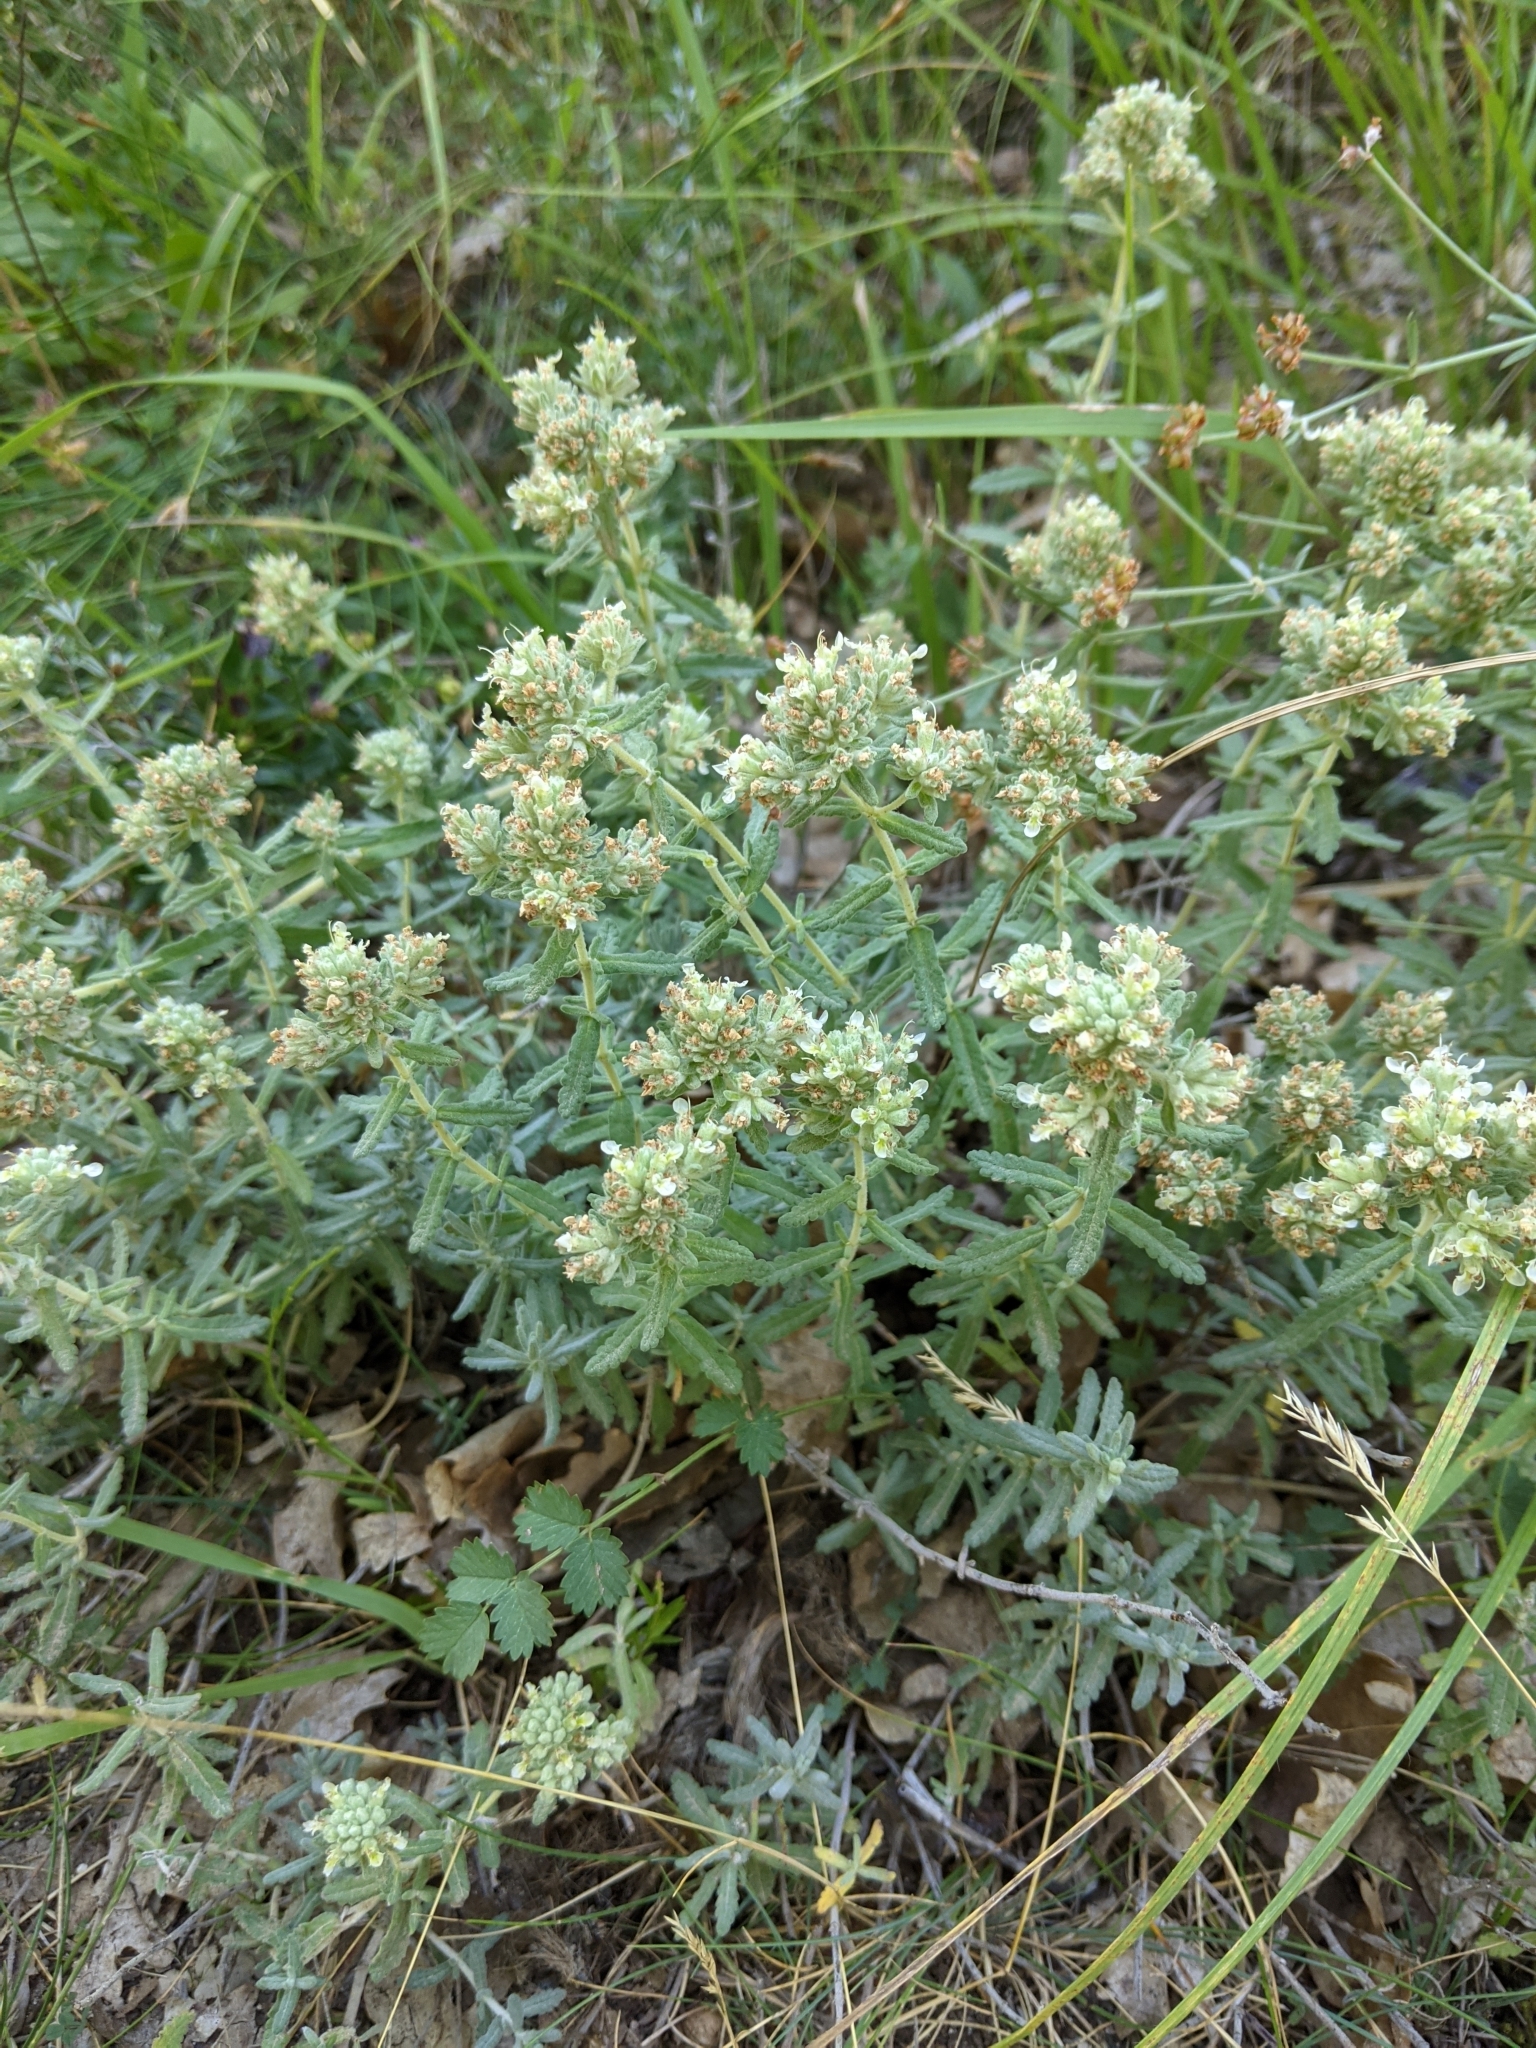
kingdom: Plantae
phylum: Tracheophyta
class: Magnoliopsida
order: Lamiales
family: Lamiaceae
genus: Teucrium
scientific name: Teucrium polium
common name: Poley
